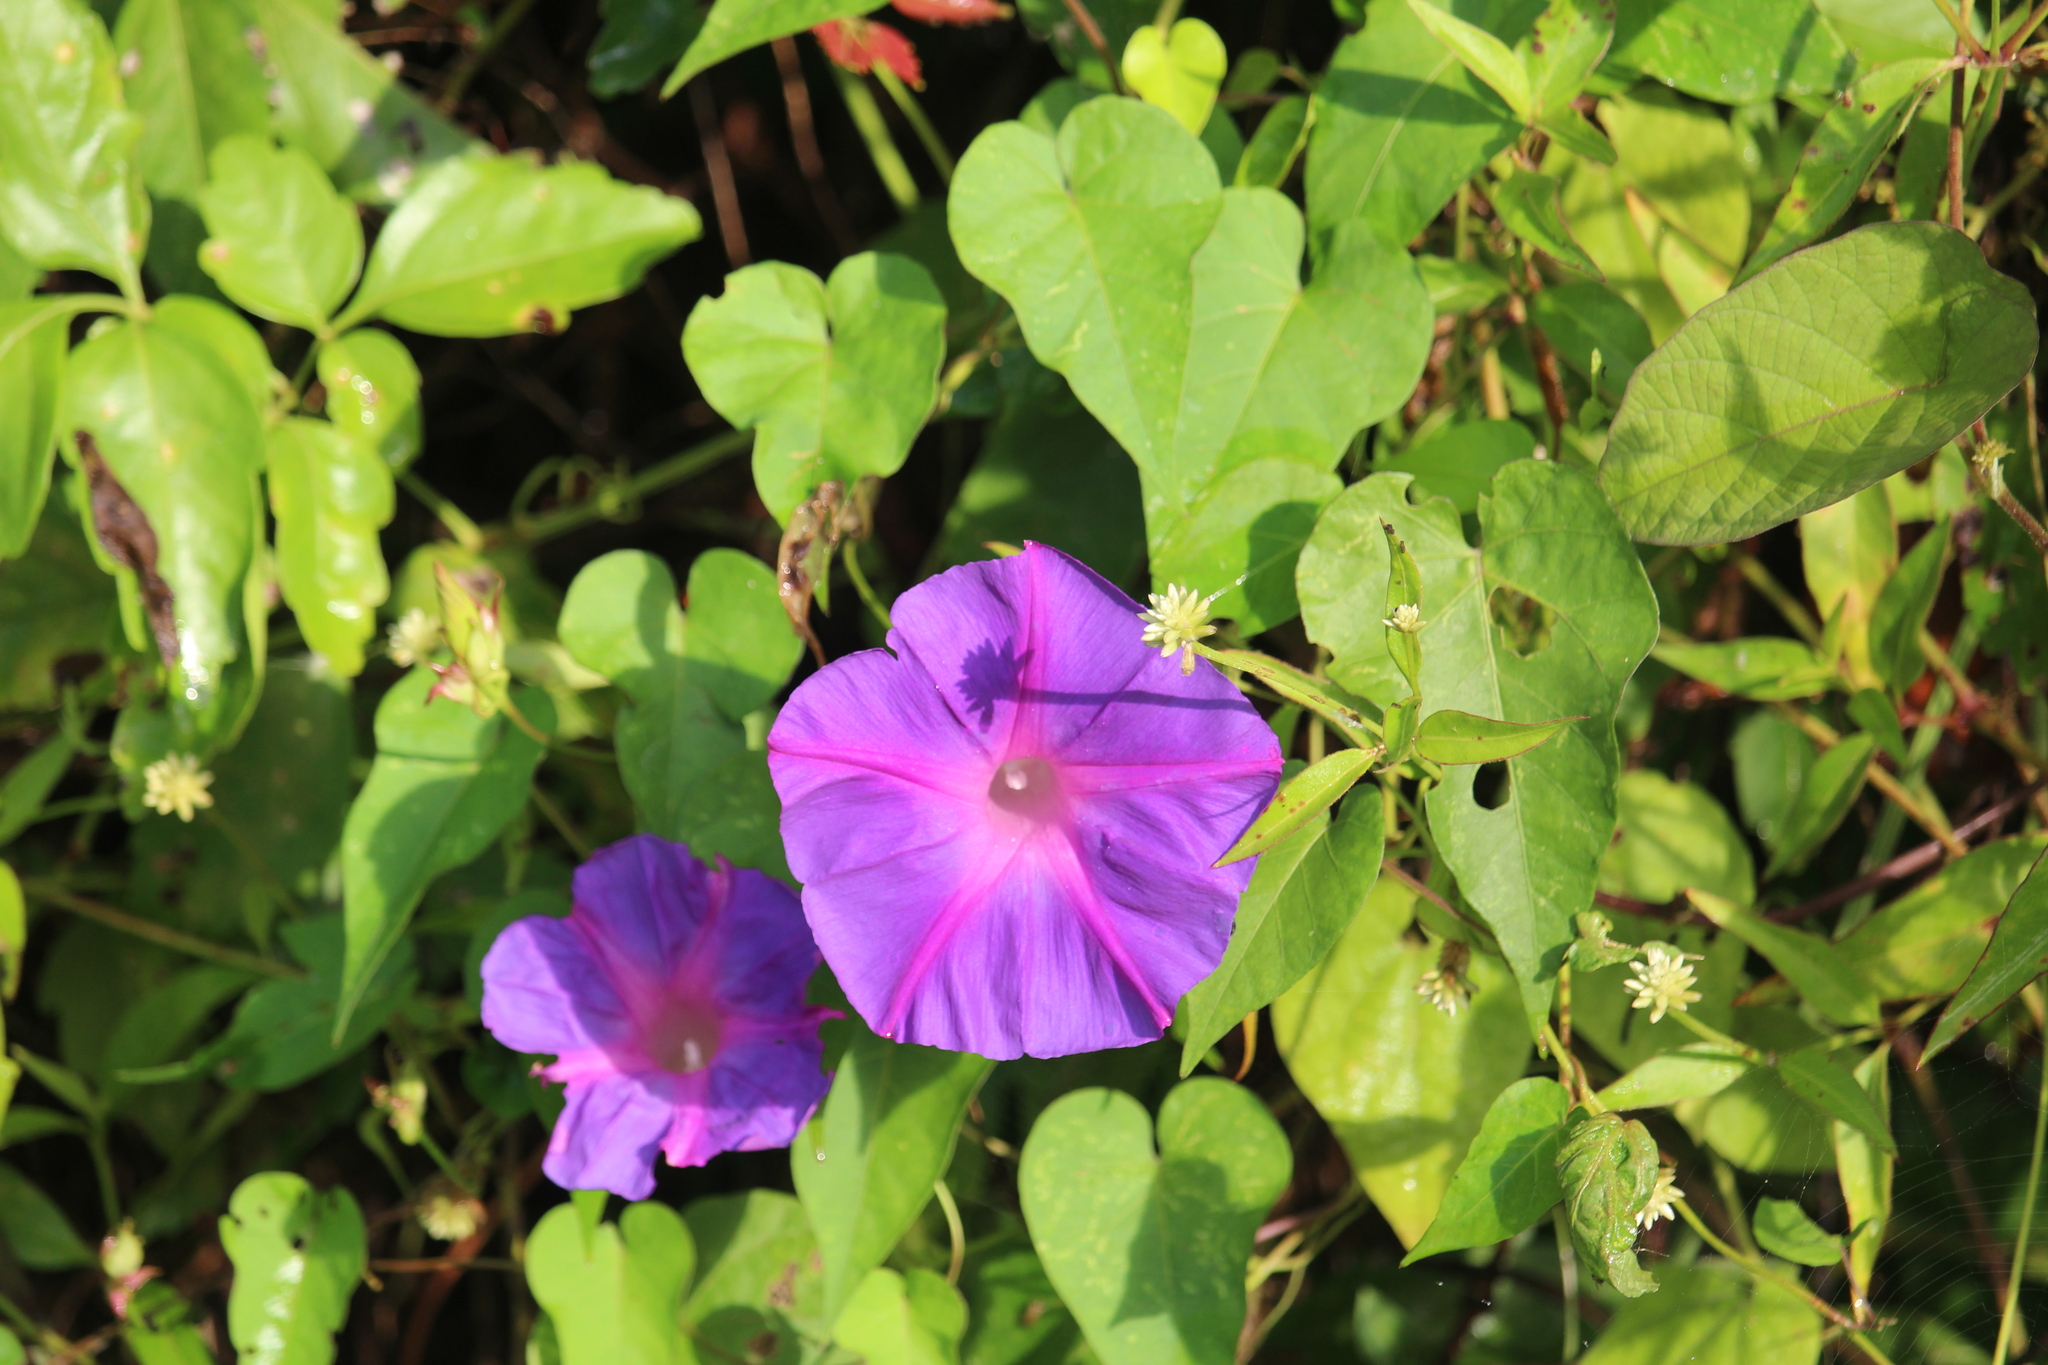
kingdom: Plantae
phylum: Tracheophyta
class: Magnoliopsida
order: Solanales
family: Convolvulaceae
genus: Ipomoea
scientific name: Ipomoea indica
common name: Blue dawnflower
